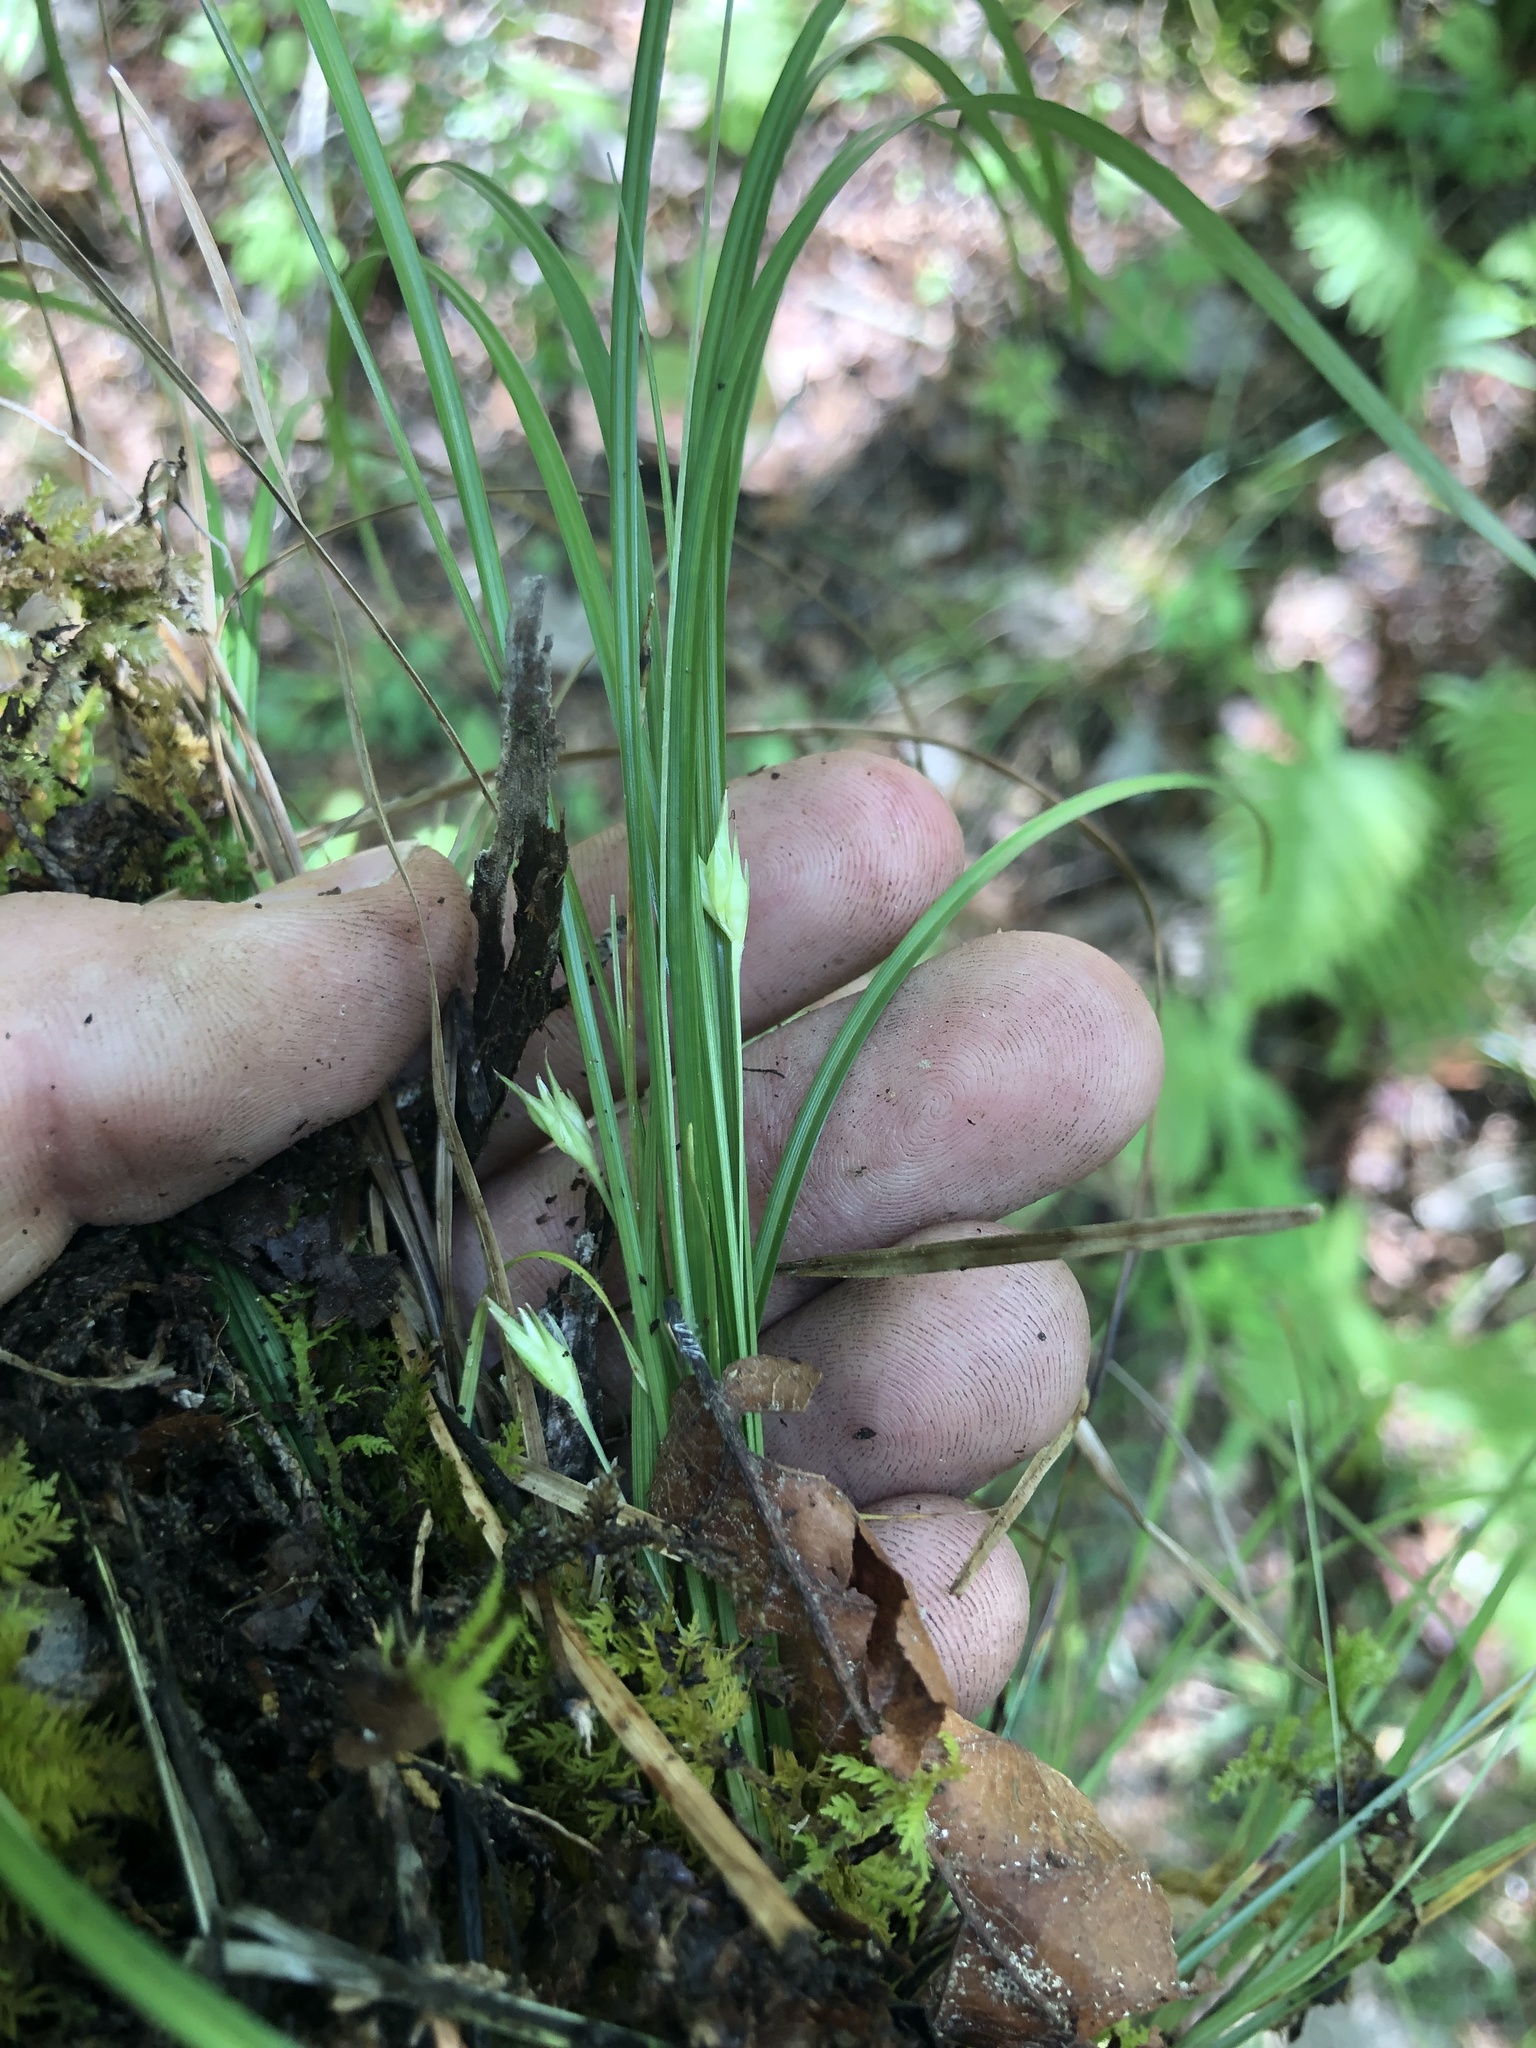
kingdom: Plantae
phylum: Tracheophyta
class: Liliopsida
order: Poales
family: Cyperaceae
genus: Carex
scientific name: Carex superata
